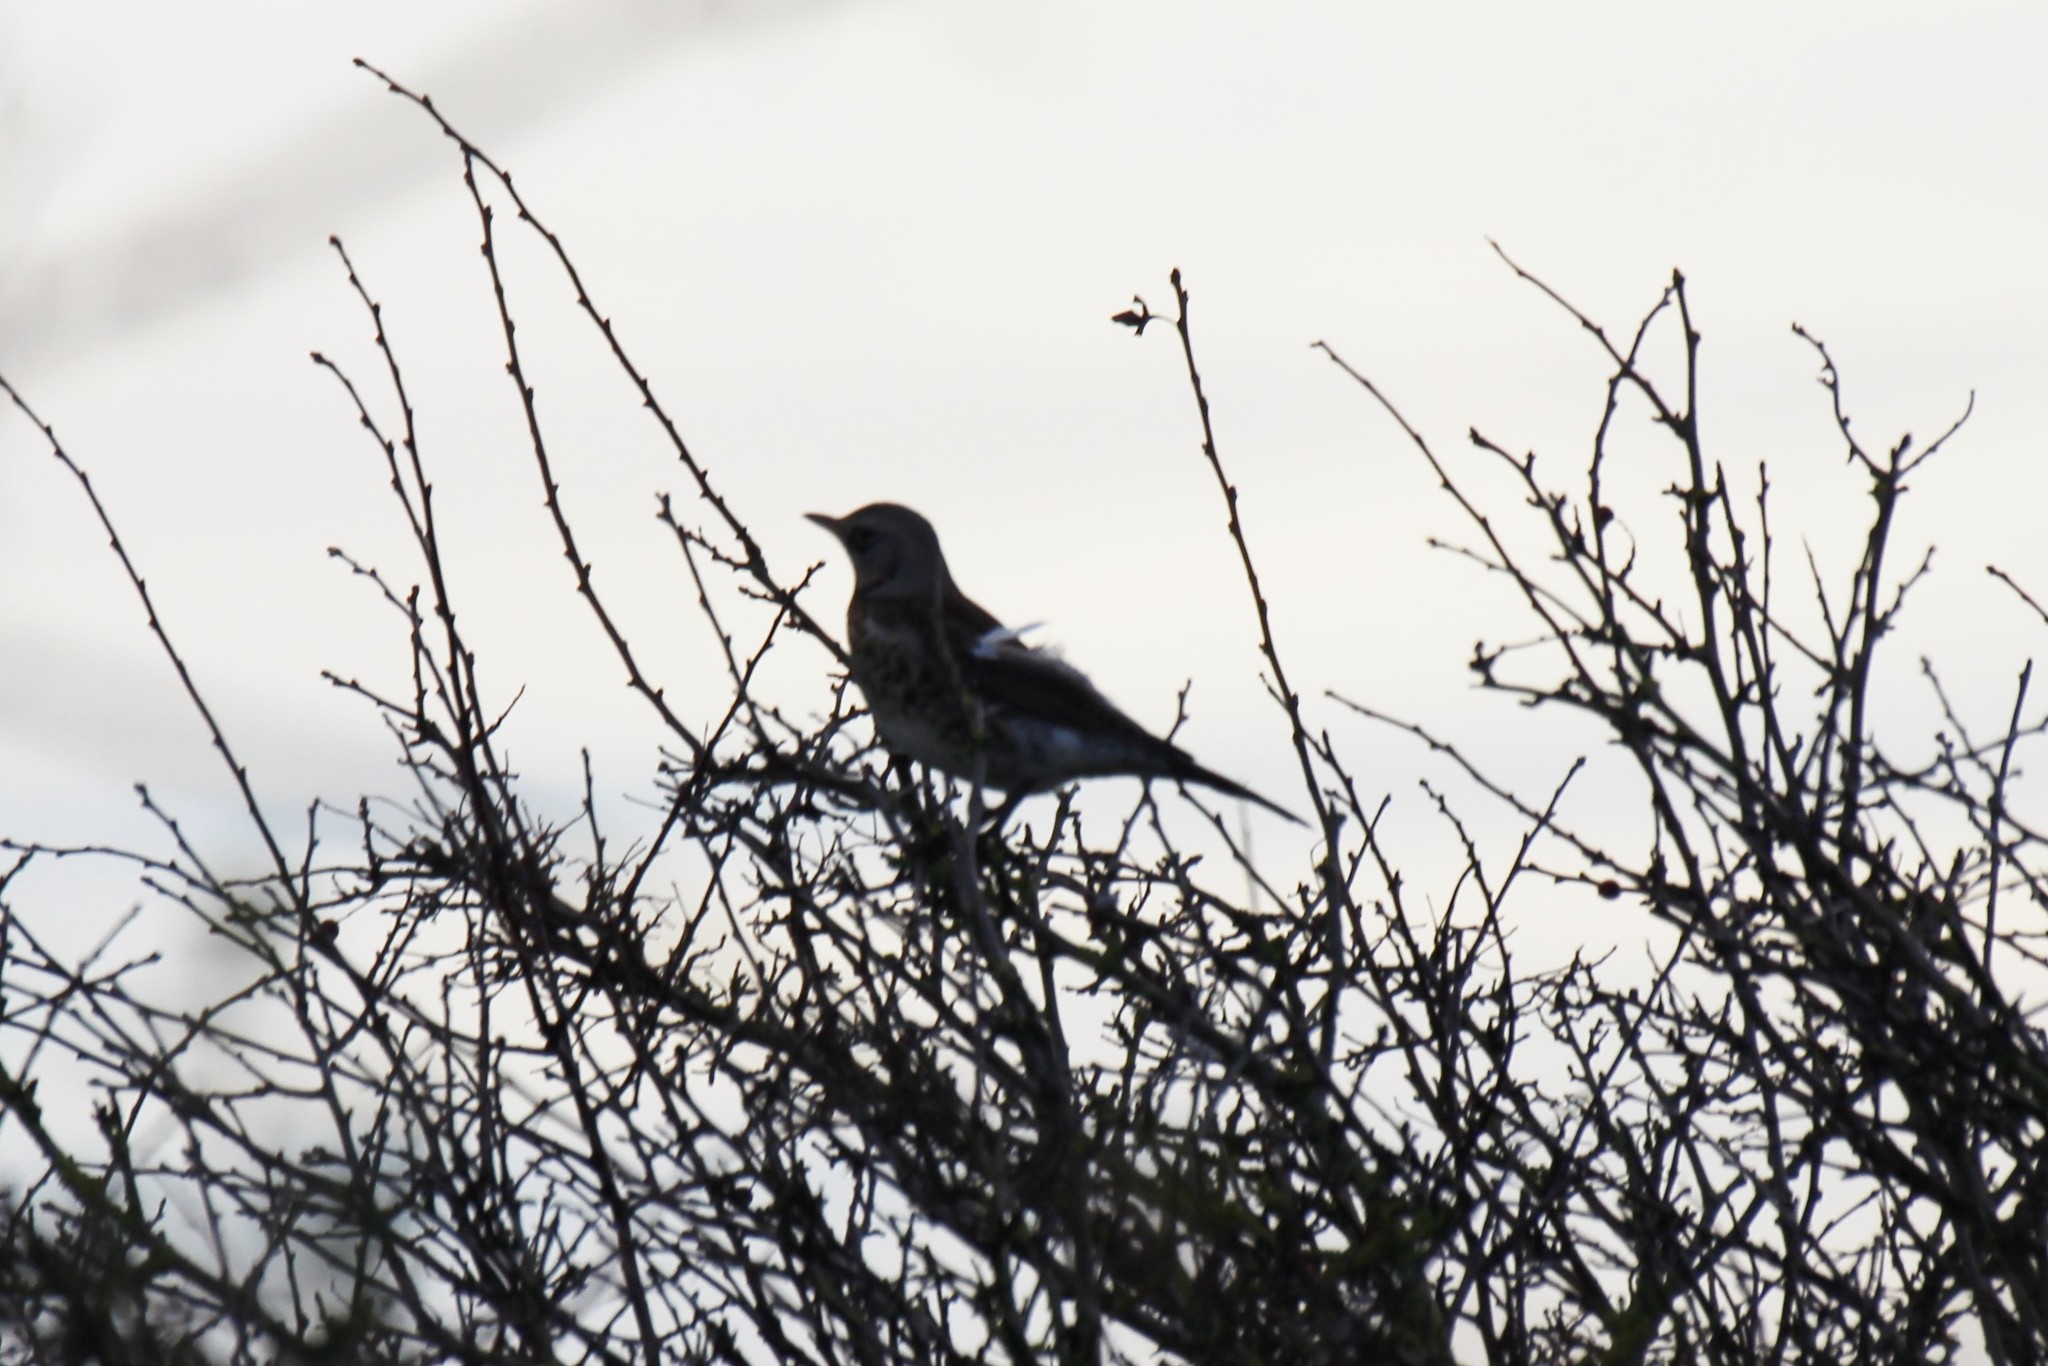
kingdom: Animalia
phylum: Chordata
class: Aves
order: Passeriformes
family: Turdidae
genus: Turdus
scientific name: Turdus pilaris
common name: Fieldfare
